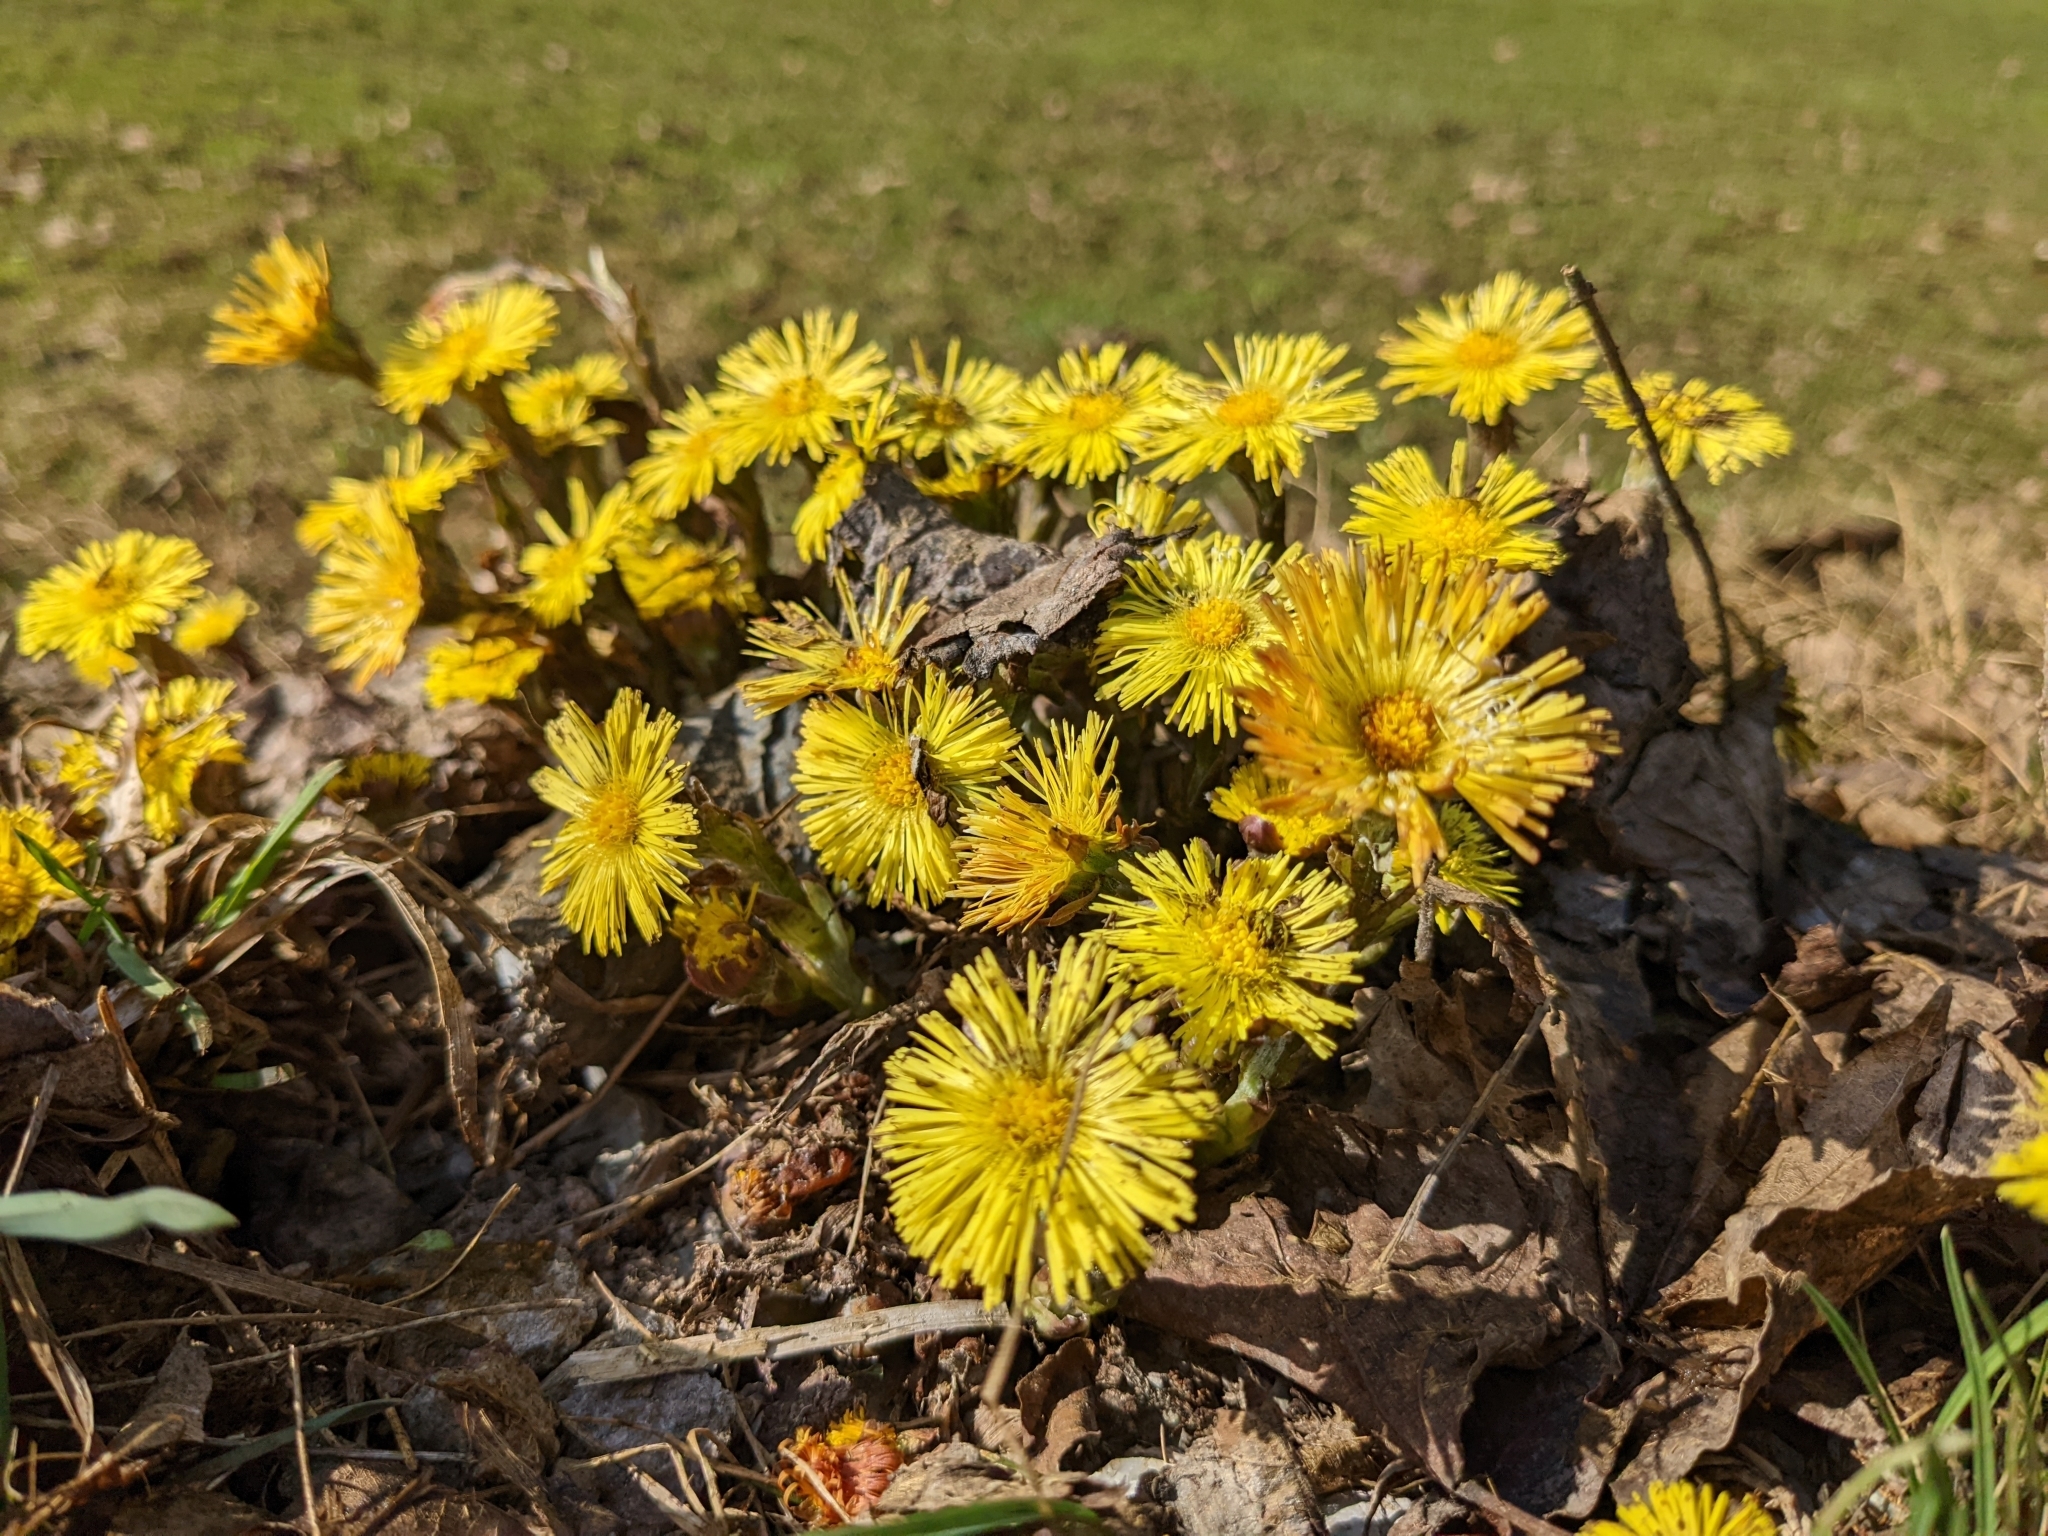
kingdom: Plantae
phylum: Tracheophyta
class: Magnoliopsida
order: Asterales
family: Asteraceae
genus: Tussilago
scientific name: Tussilago farfara
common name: Coltsfoot
